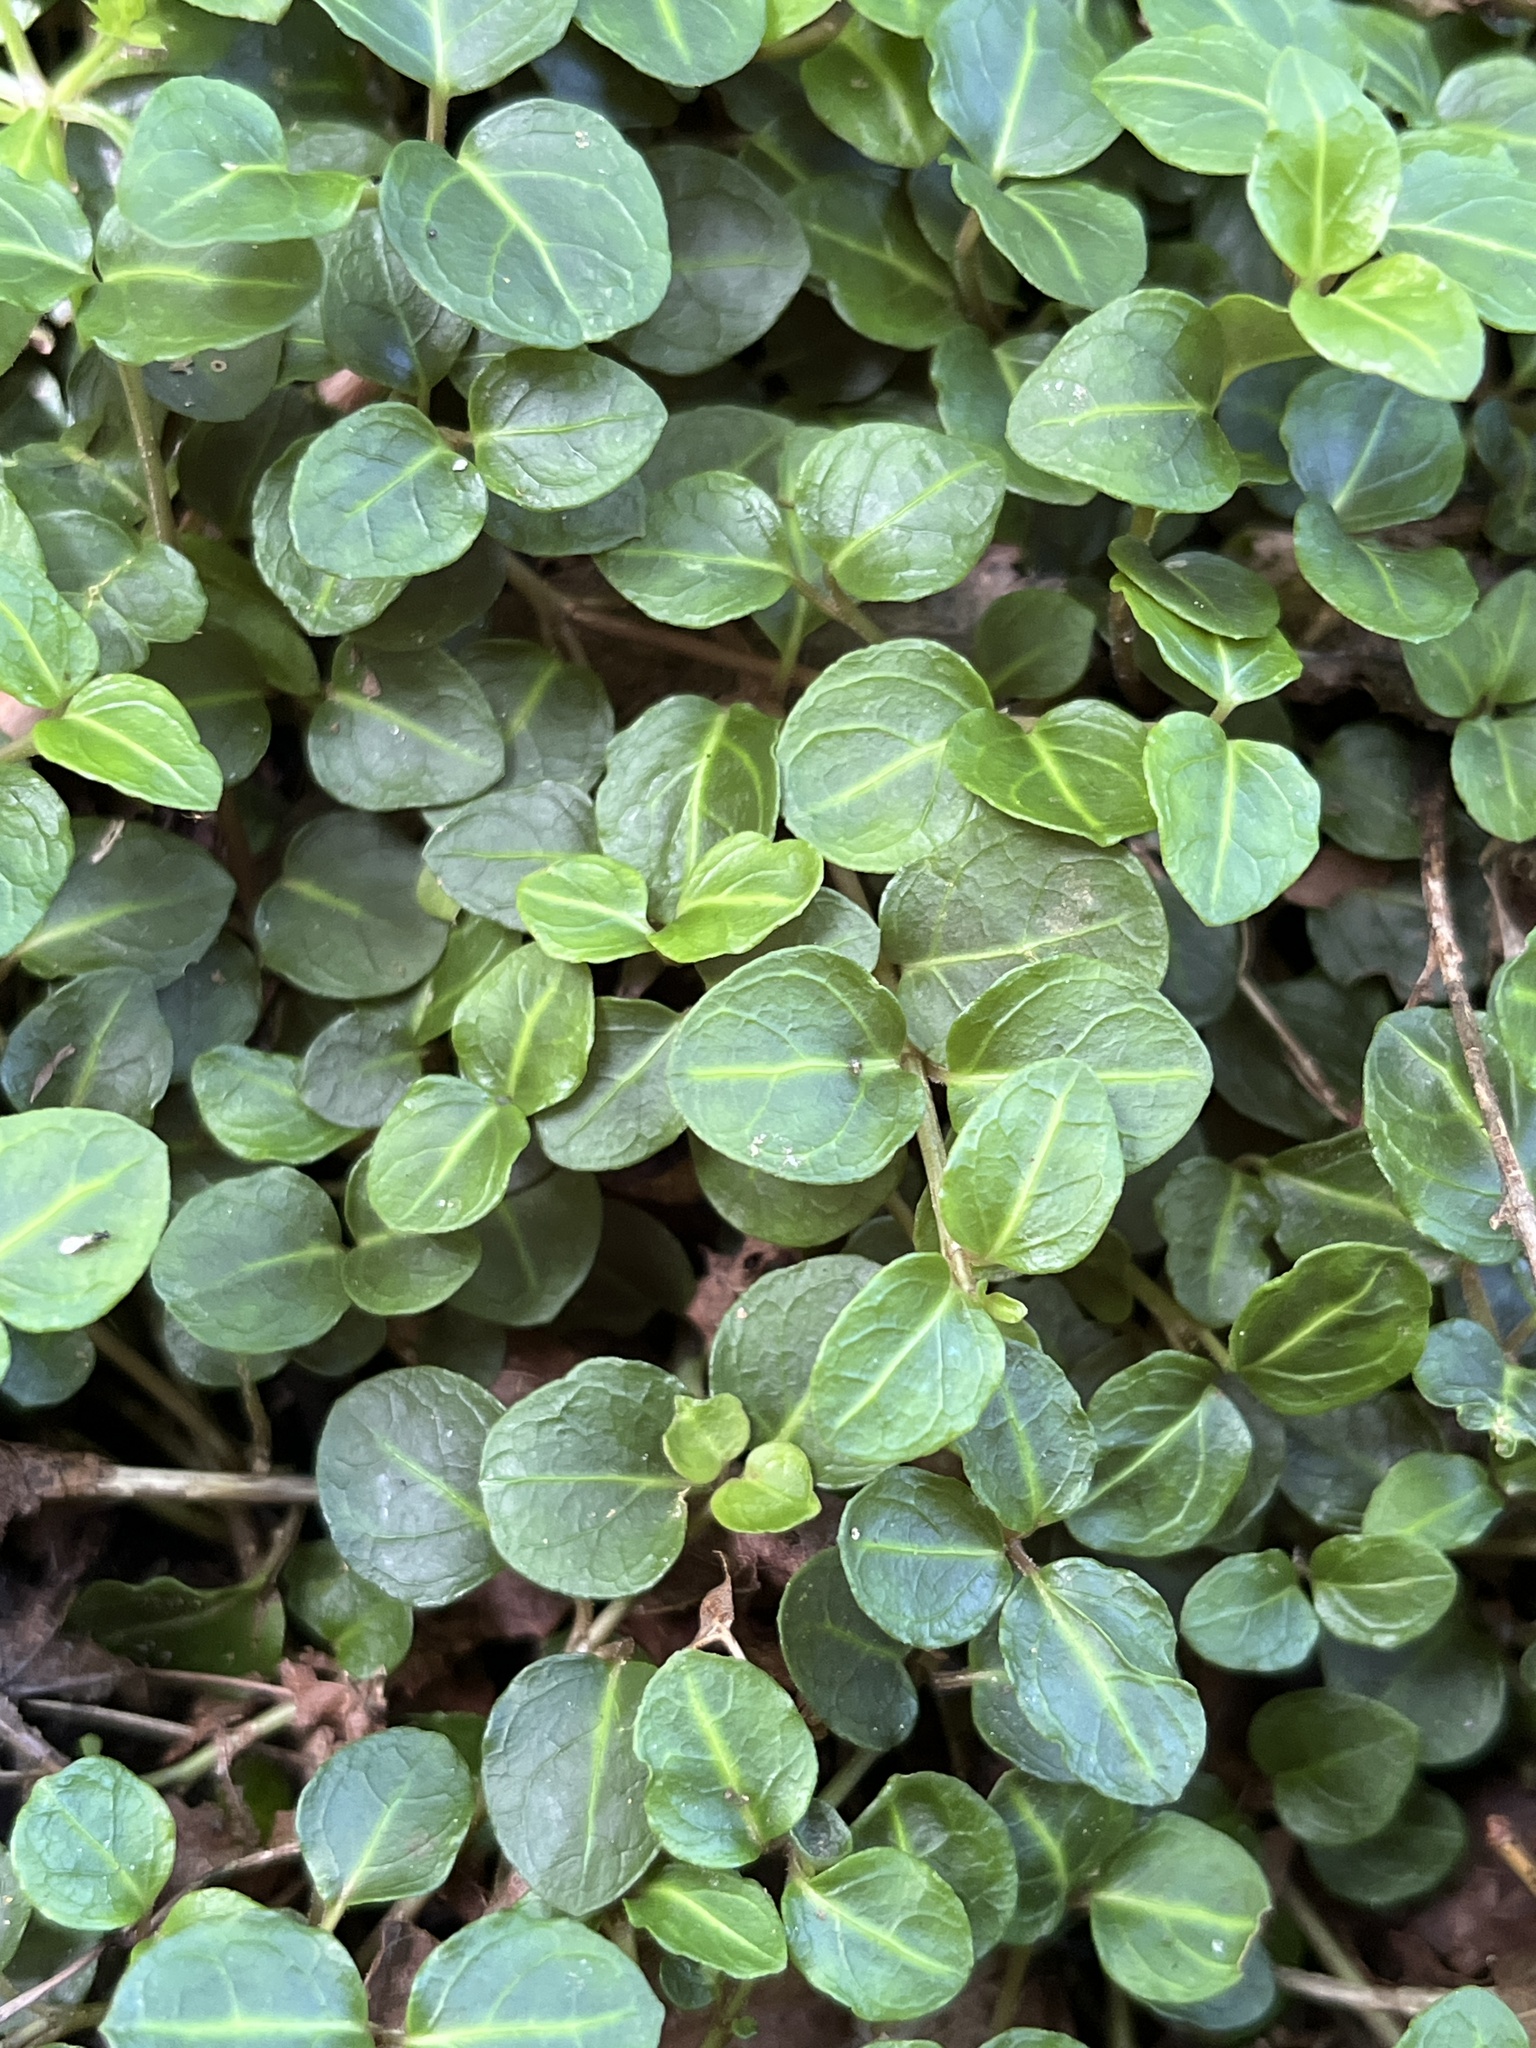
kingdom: Plantae
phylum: Tracheophyta
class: Magnoliopsida
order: Gentianales
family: Rubiaceae
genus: Mitchella
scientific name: Mitchella repens
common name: Partridge-berry
